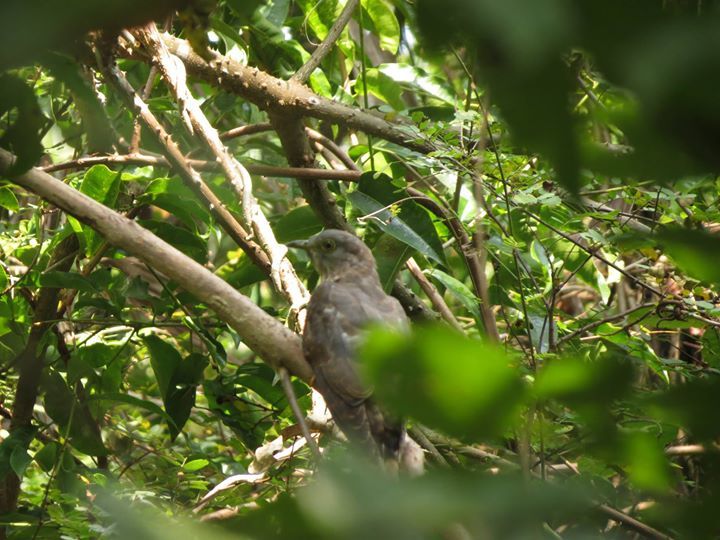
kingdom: Animalia
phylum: Chordata
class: Aves
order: Cuculiformes
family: Cuculidae
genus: Cuculus
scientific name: Cuculus varius
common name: Common hawk cuckoo
